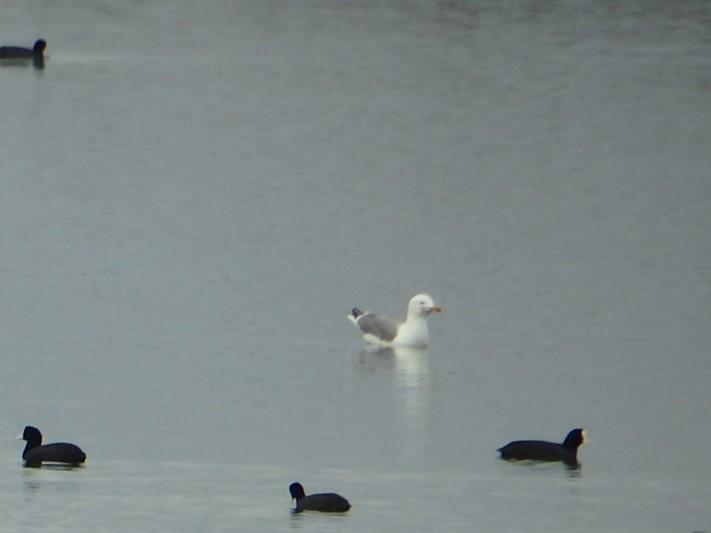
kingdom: Animalia
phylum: Chordata
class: Aves
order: Charadriiformes
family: Laridae
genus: Larus
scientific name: Larus michahellis
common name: Yellow-legged gull
